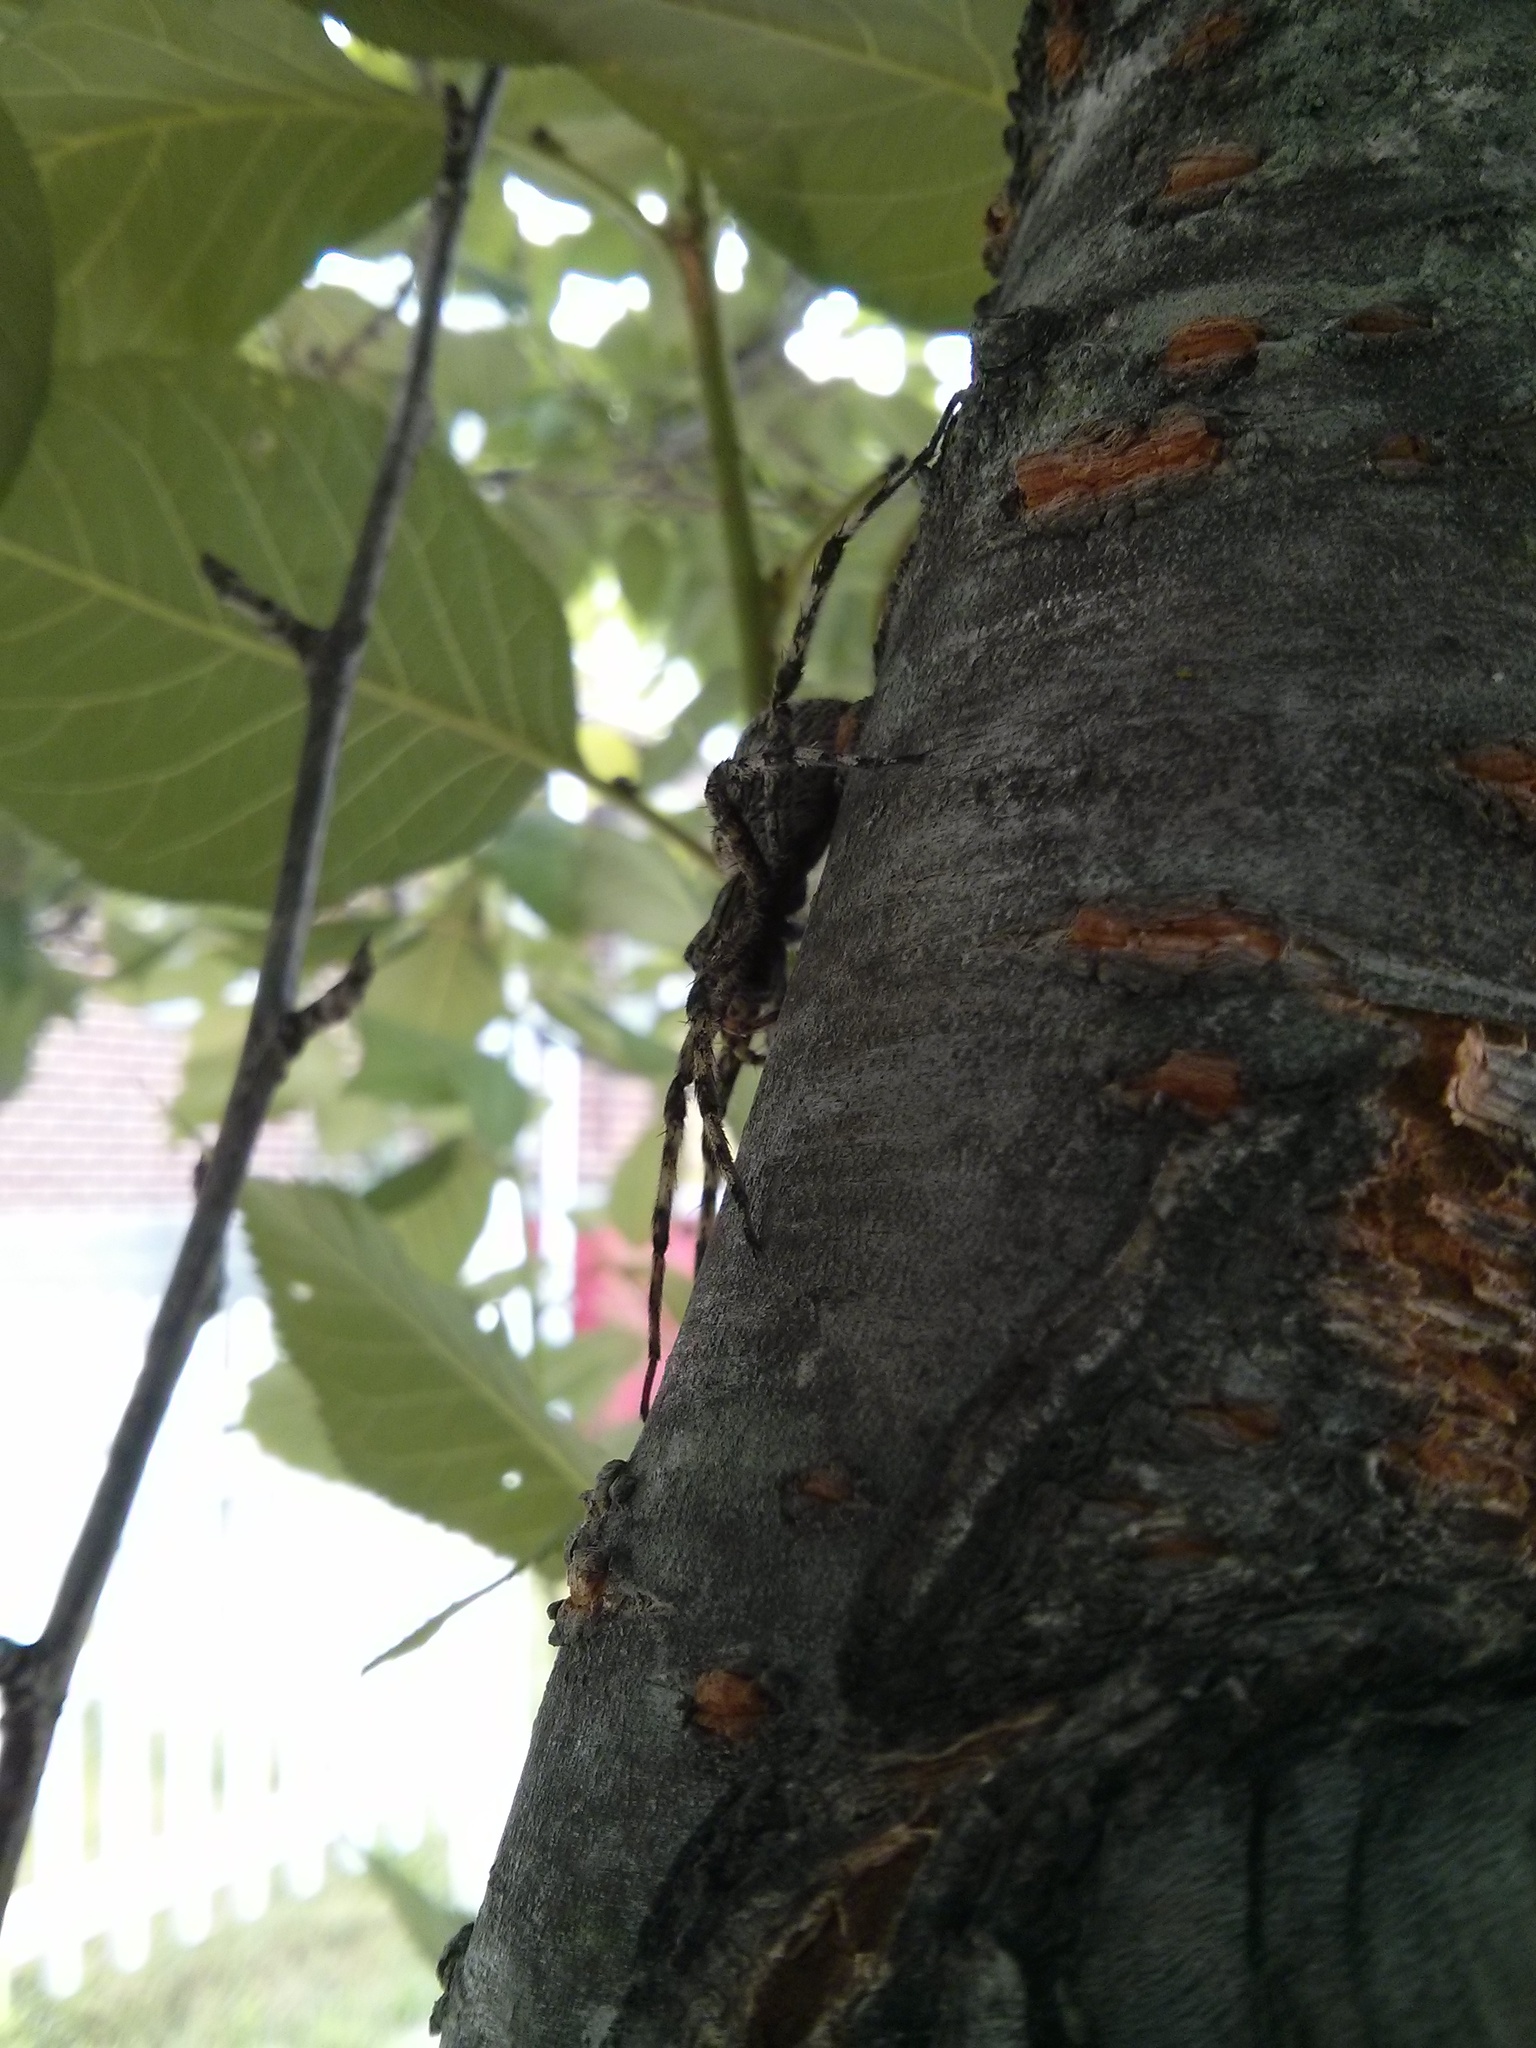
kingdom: Animalia
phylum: Arthropoda
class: Arachnida
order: Araneae
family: Pisauridae
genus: Dolomedes
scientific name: Dolomedes albineus
